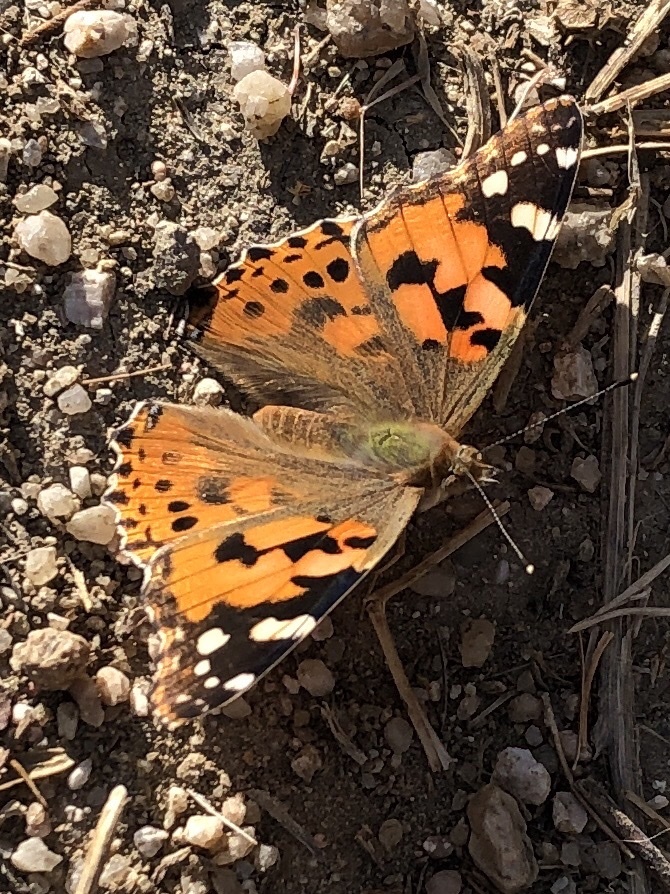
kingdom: Animalia
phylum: Arthropoda
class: Insecta
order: Lepidoptera
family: Nymphalidae
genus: Vanessa
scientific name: Vanessa cardui
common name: Painted lady
